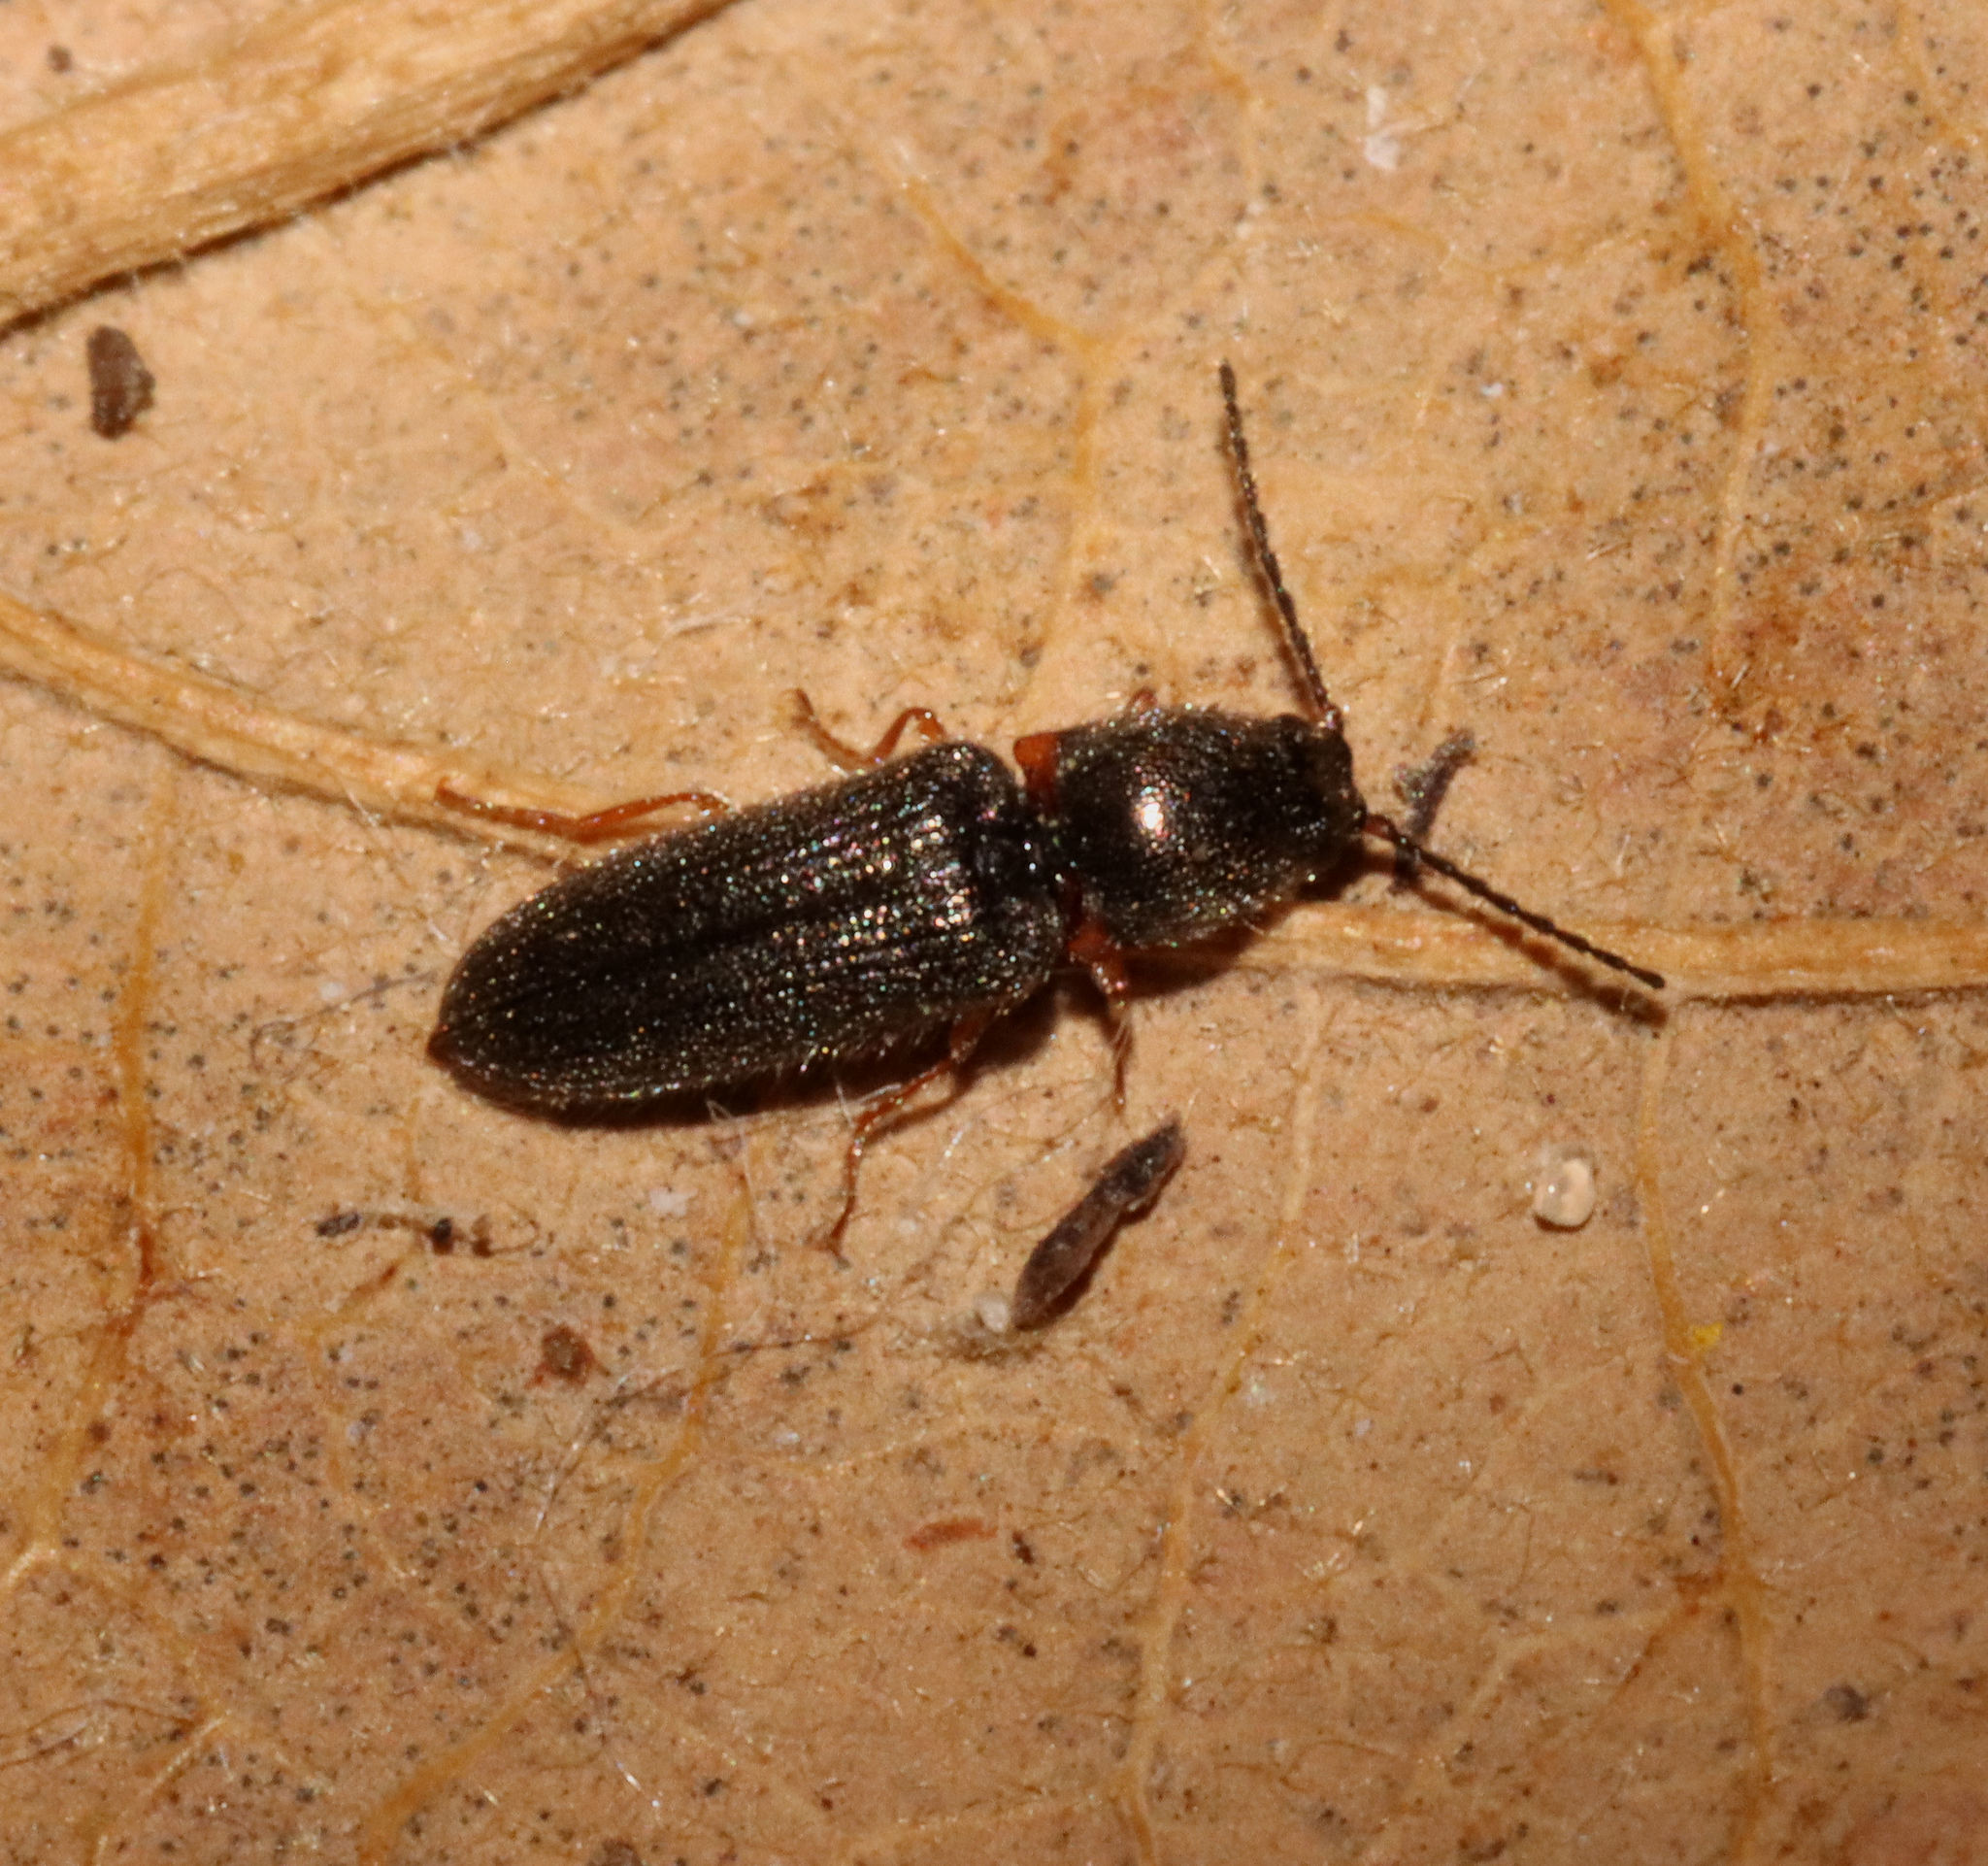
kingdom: Animalia
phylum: Arthropoda
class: Insecta
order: Coleoptera
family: Elateridae
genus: Limonius
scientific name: Limonius basilaris
